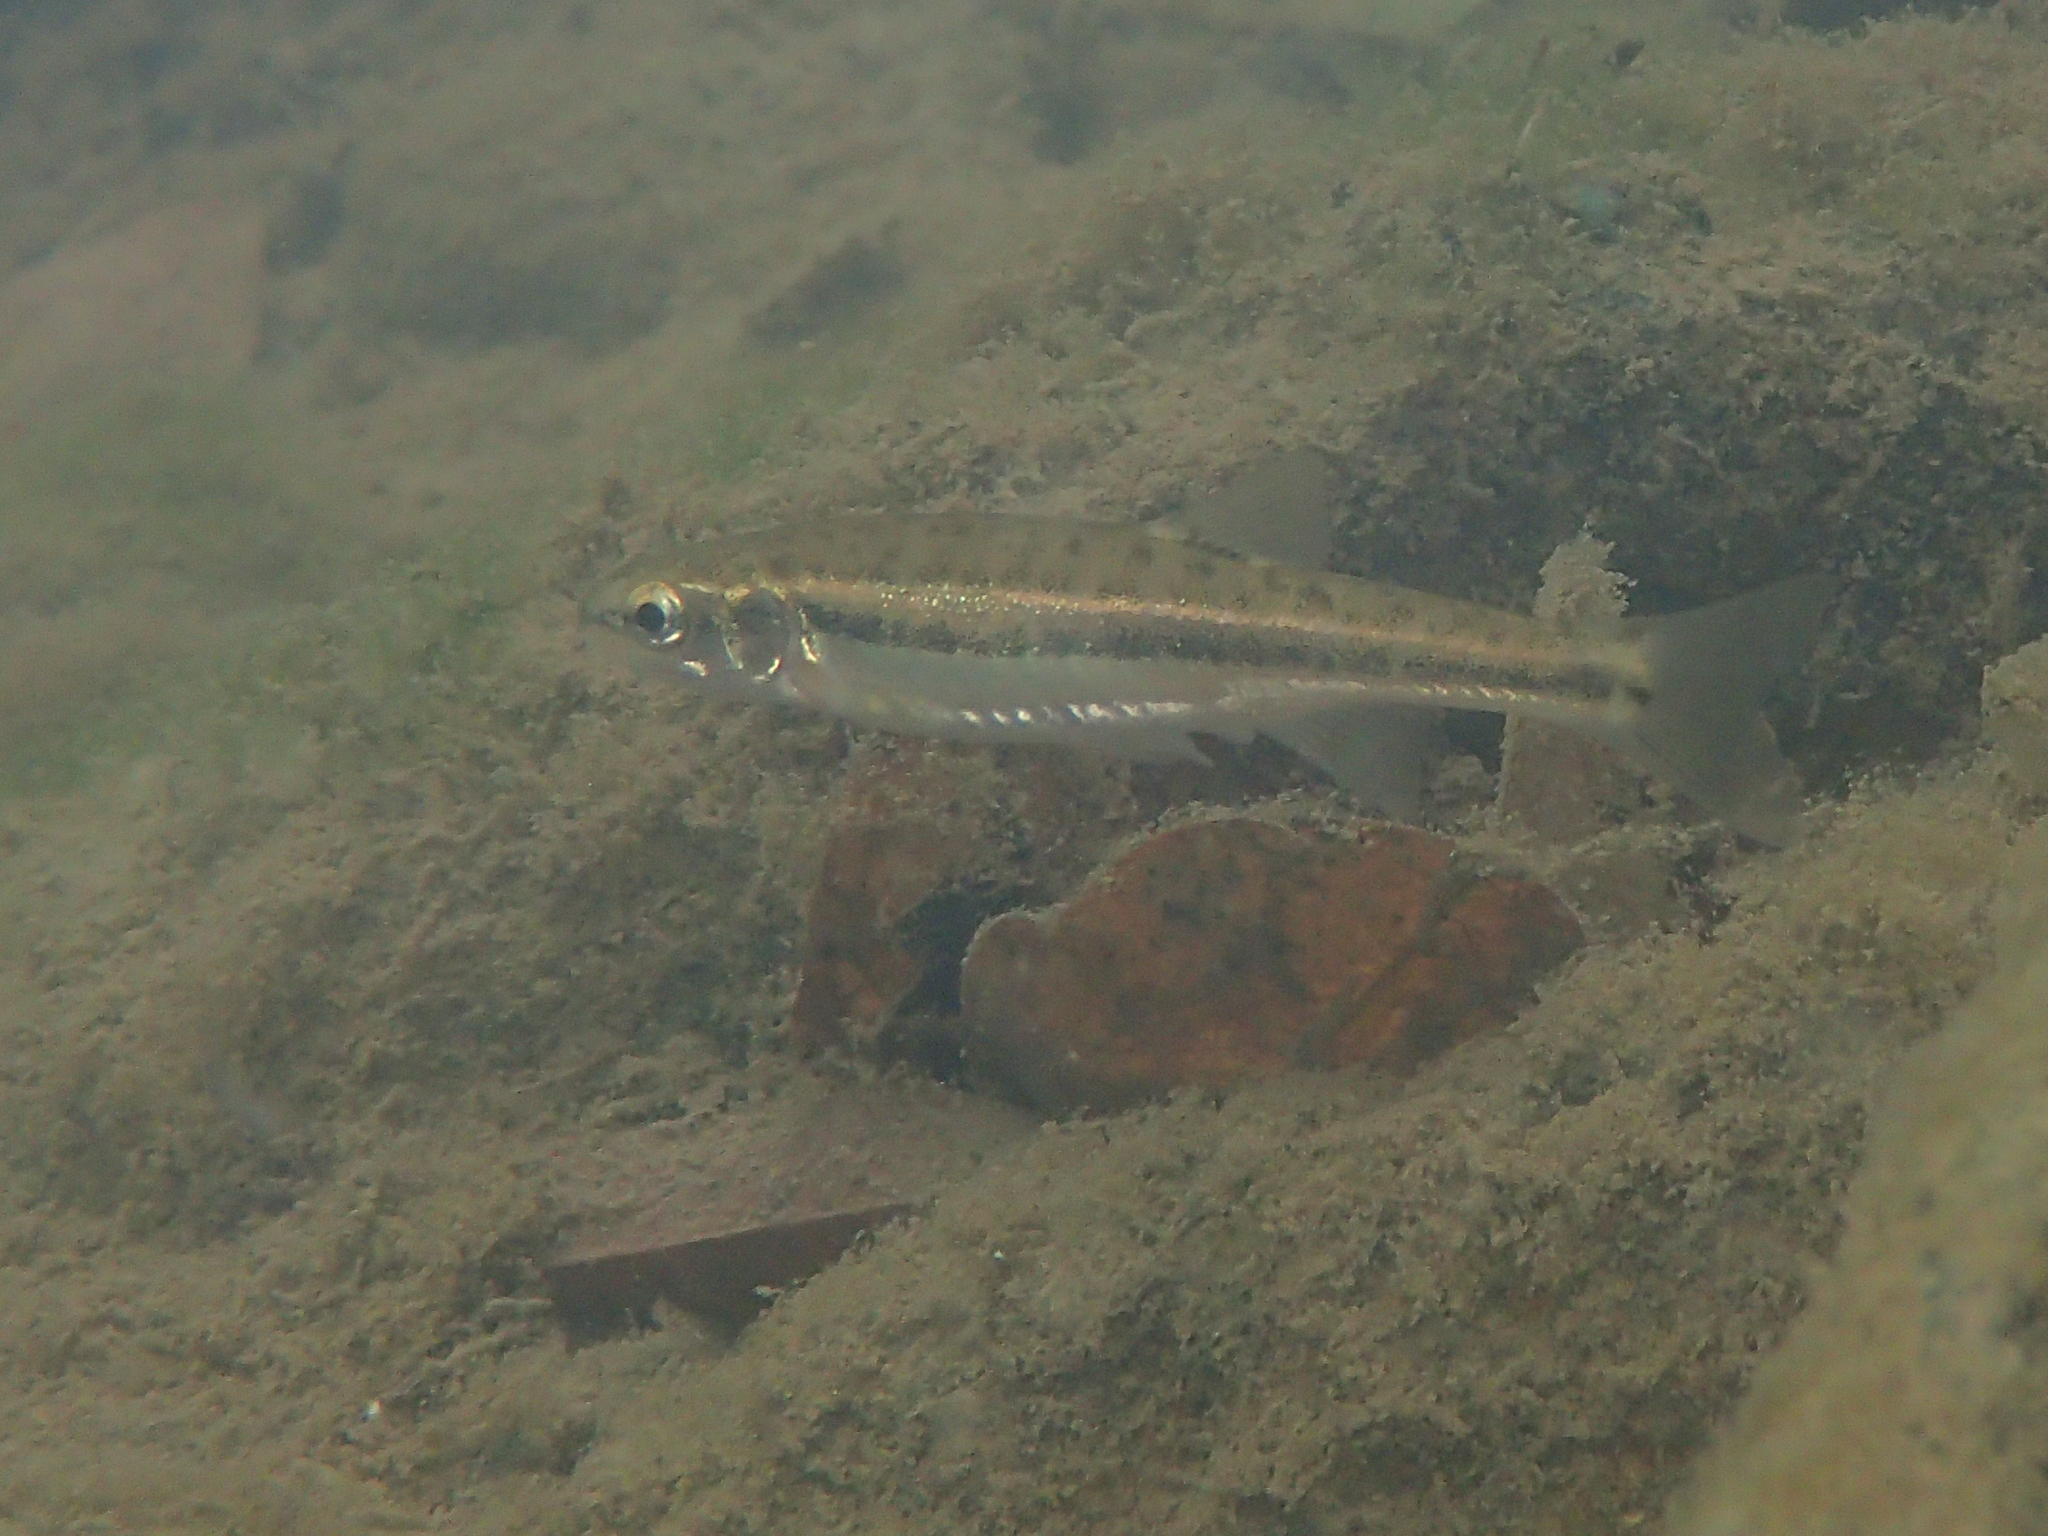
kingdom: Animalia
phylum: Chordata
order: Cypriniformes
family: Cyprinidae
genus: Phoxinus
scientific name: Phoxinus phoxinus
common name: Minnow
